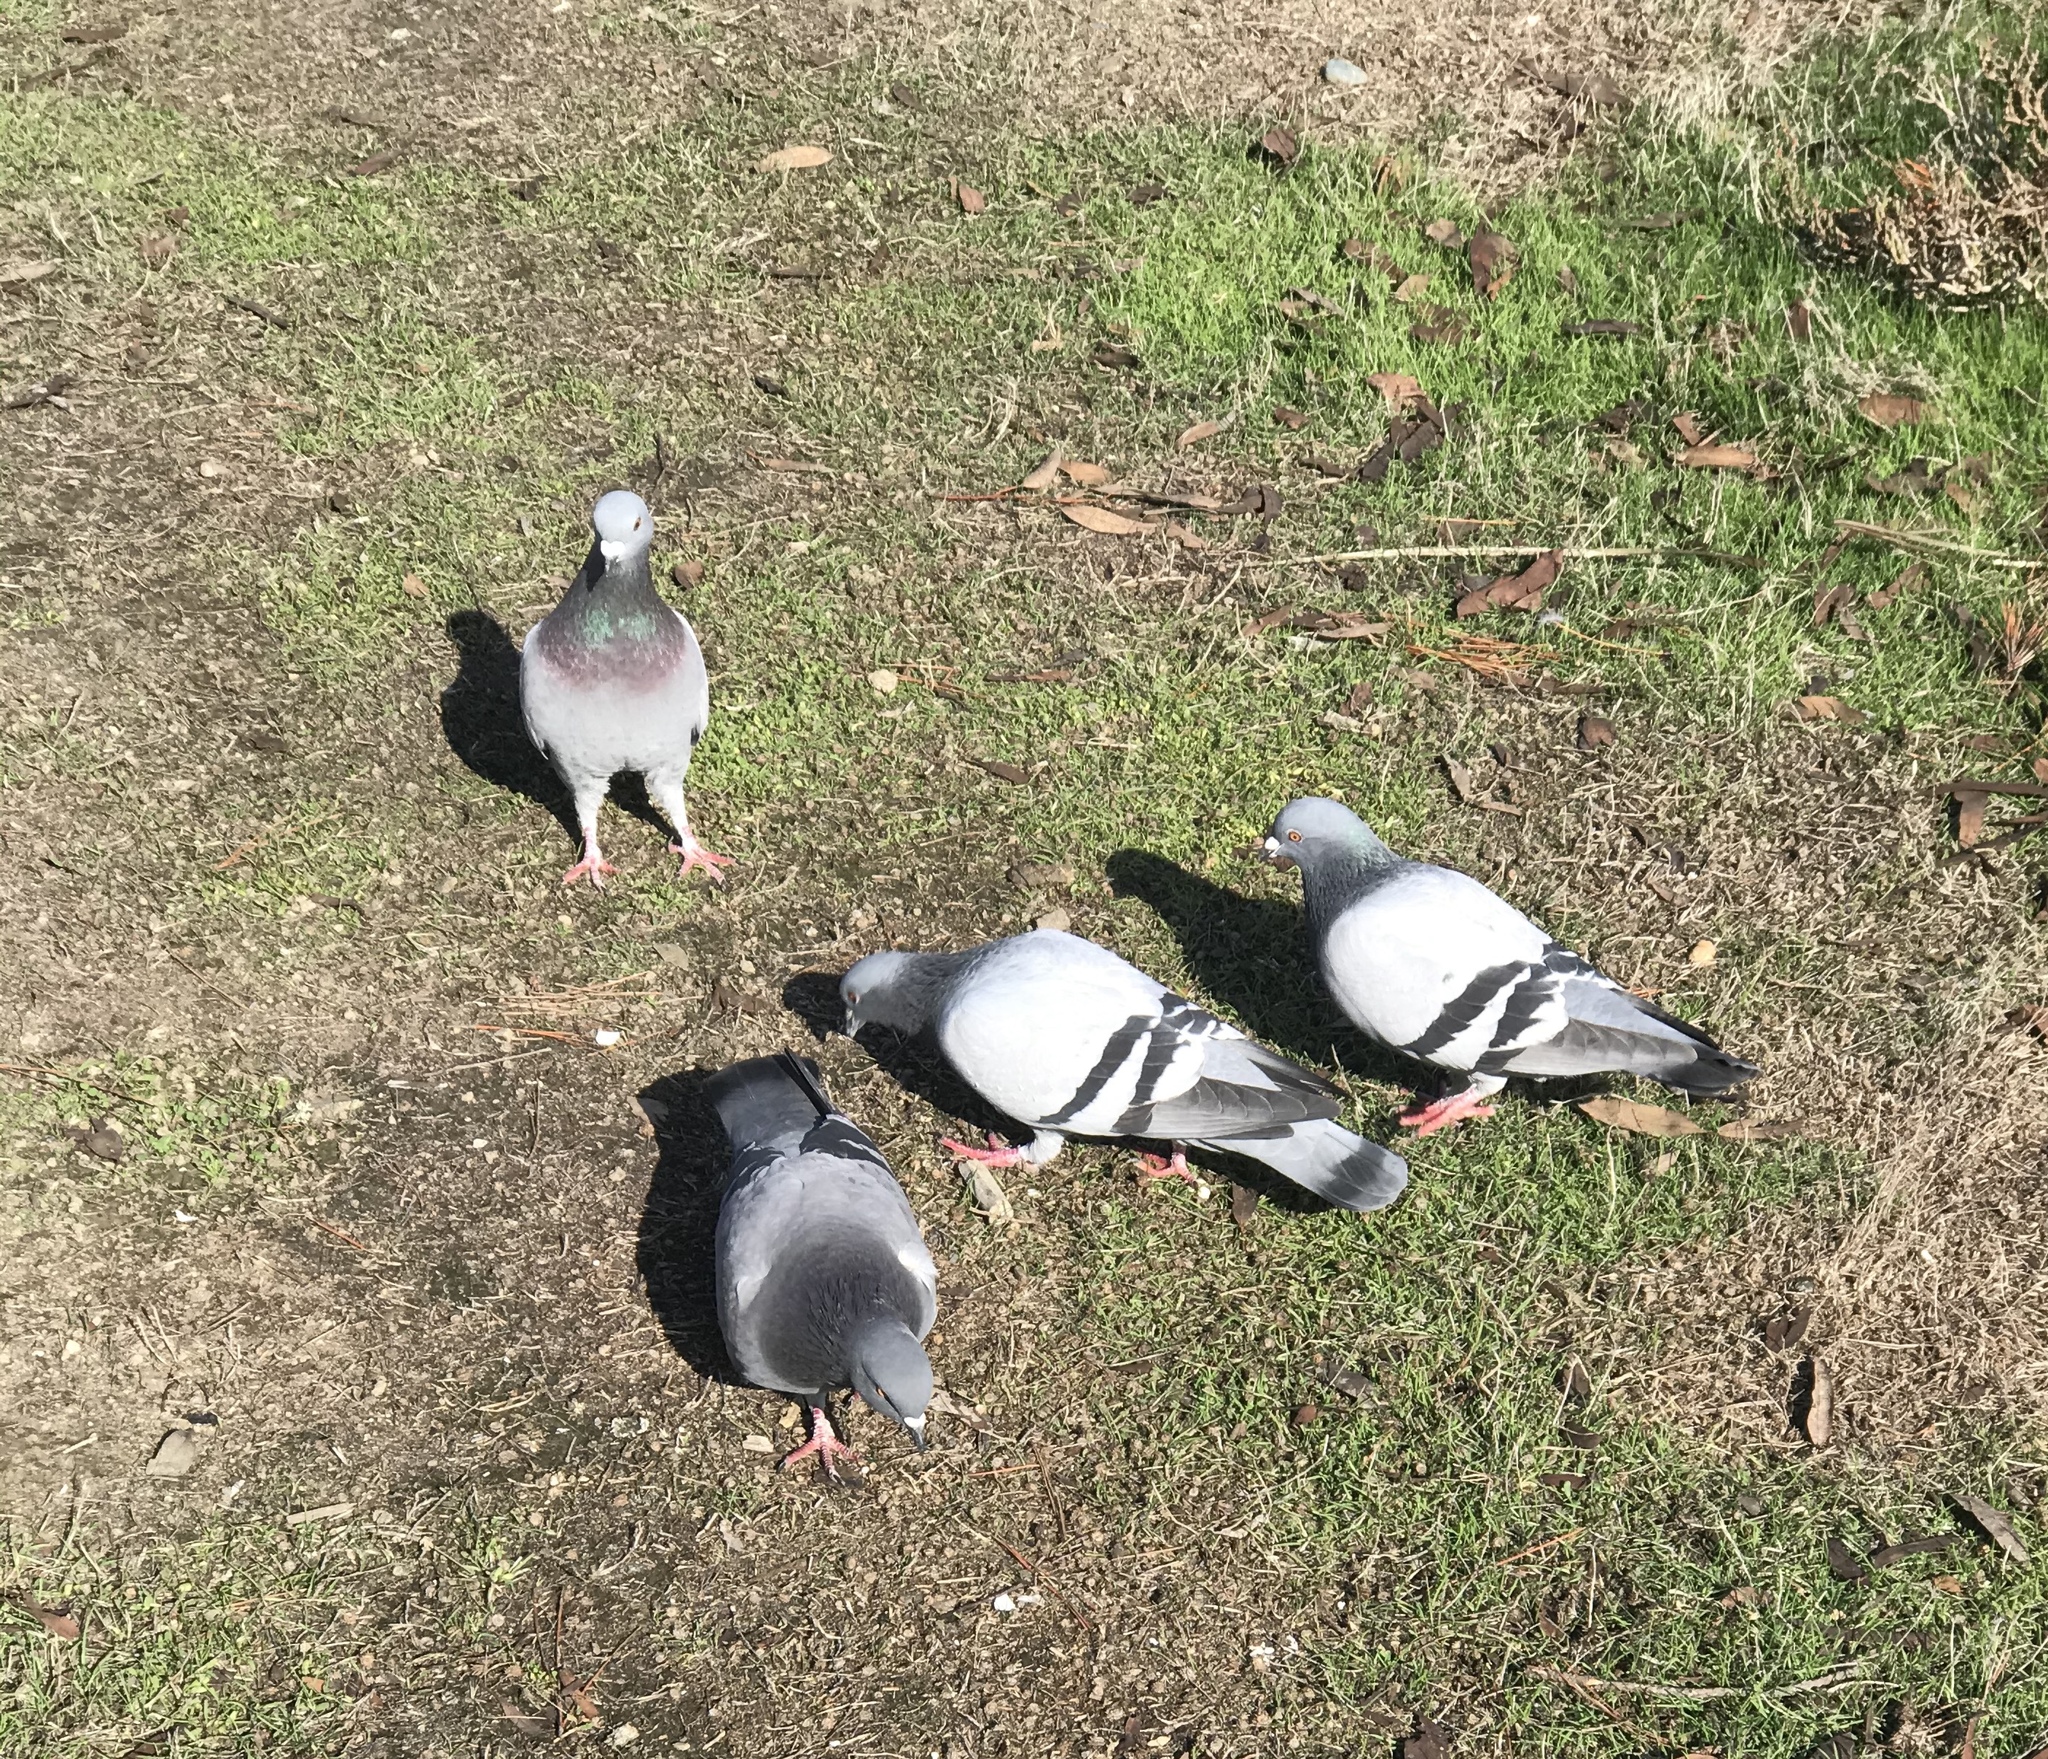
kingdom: Animalia
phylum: Chordata
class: Aves
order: Columbiformes
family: Columbidae
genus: Columba
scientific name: Columba livia
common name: Rock pigeon
